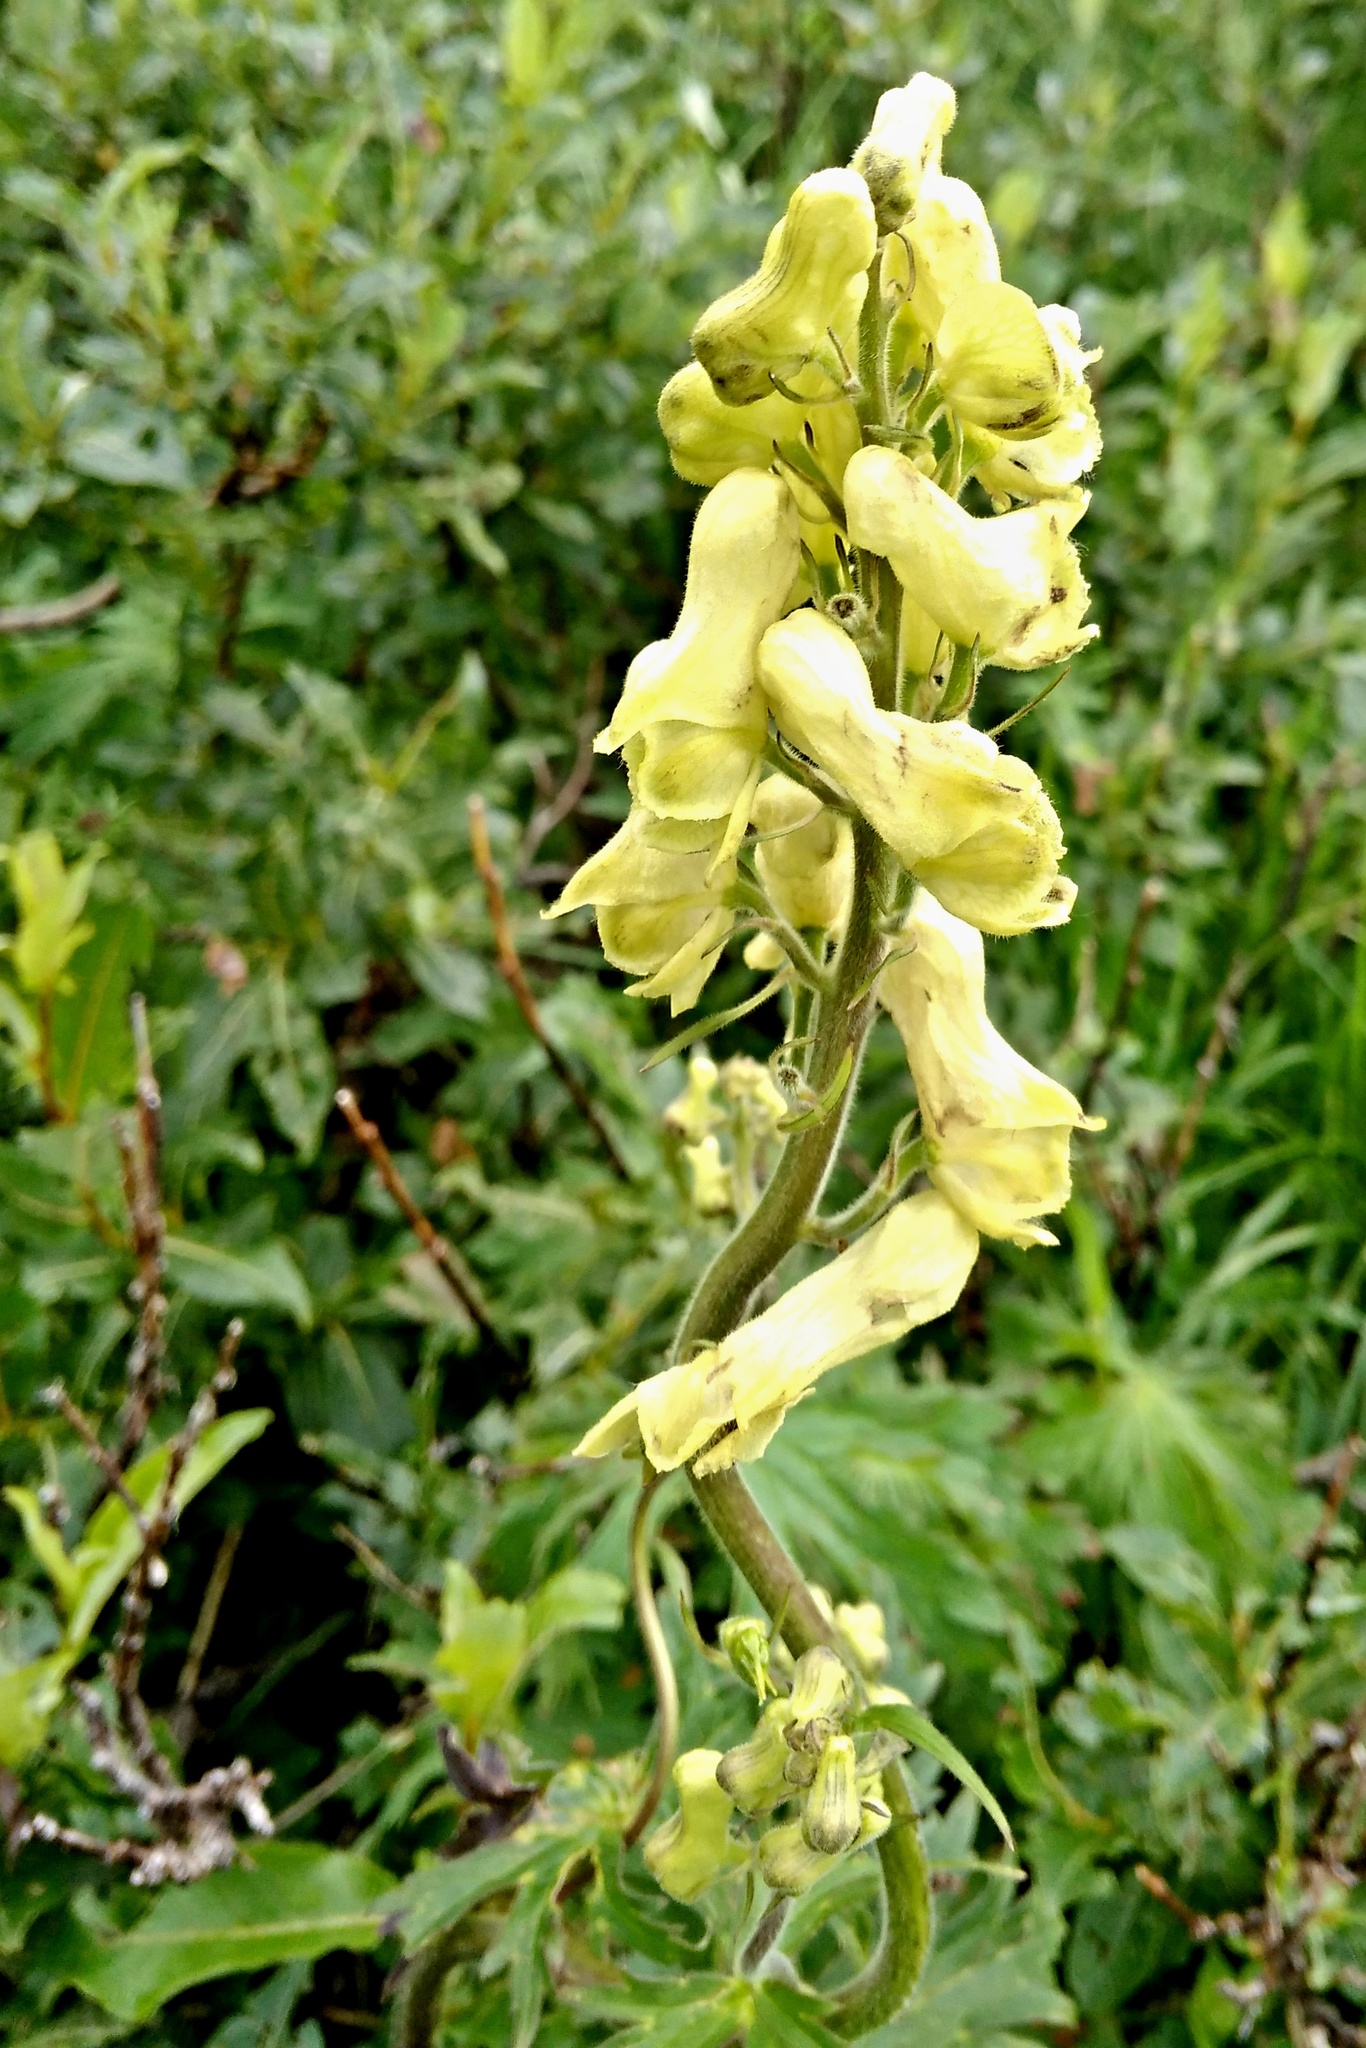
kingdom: Plantae
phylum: Tracheophyta
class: Magnoliopsida
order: Ranunculales
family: Ranunculaceae
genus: Aconitum
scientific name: Aconitum lycoctonum
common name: Wolf's-bane
